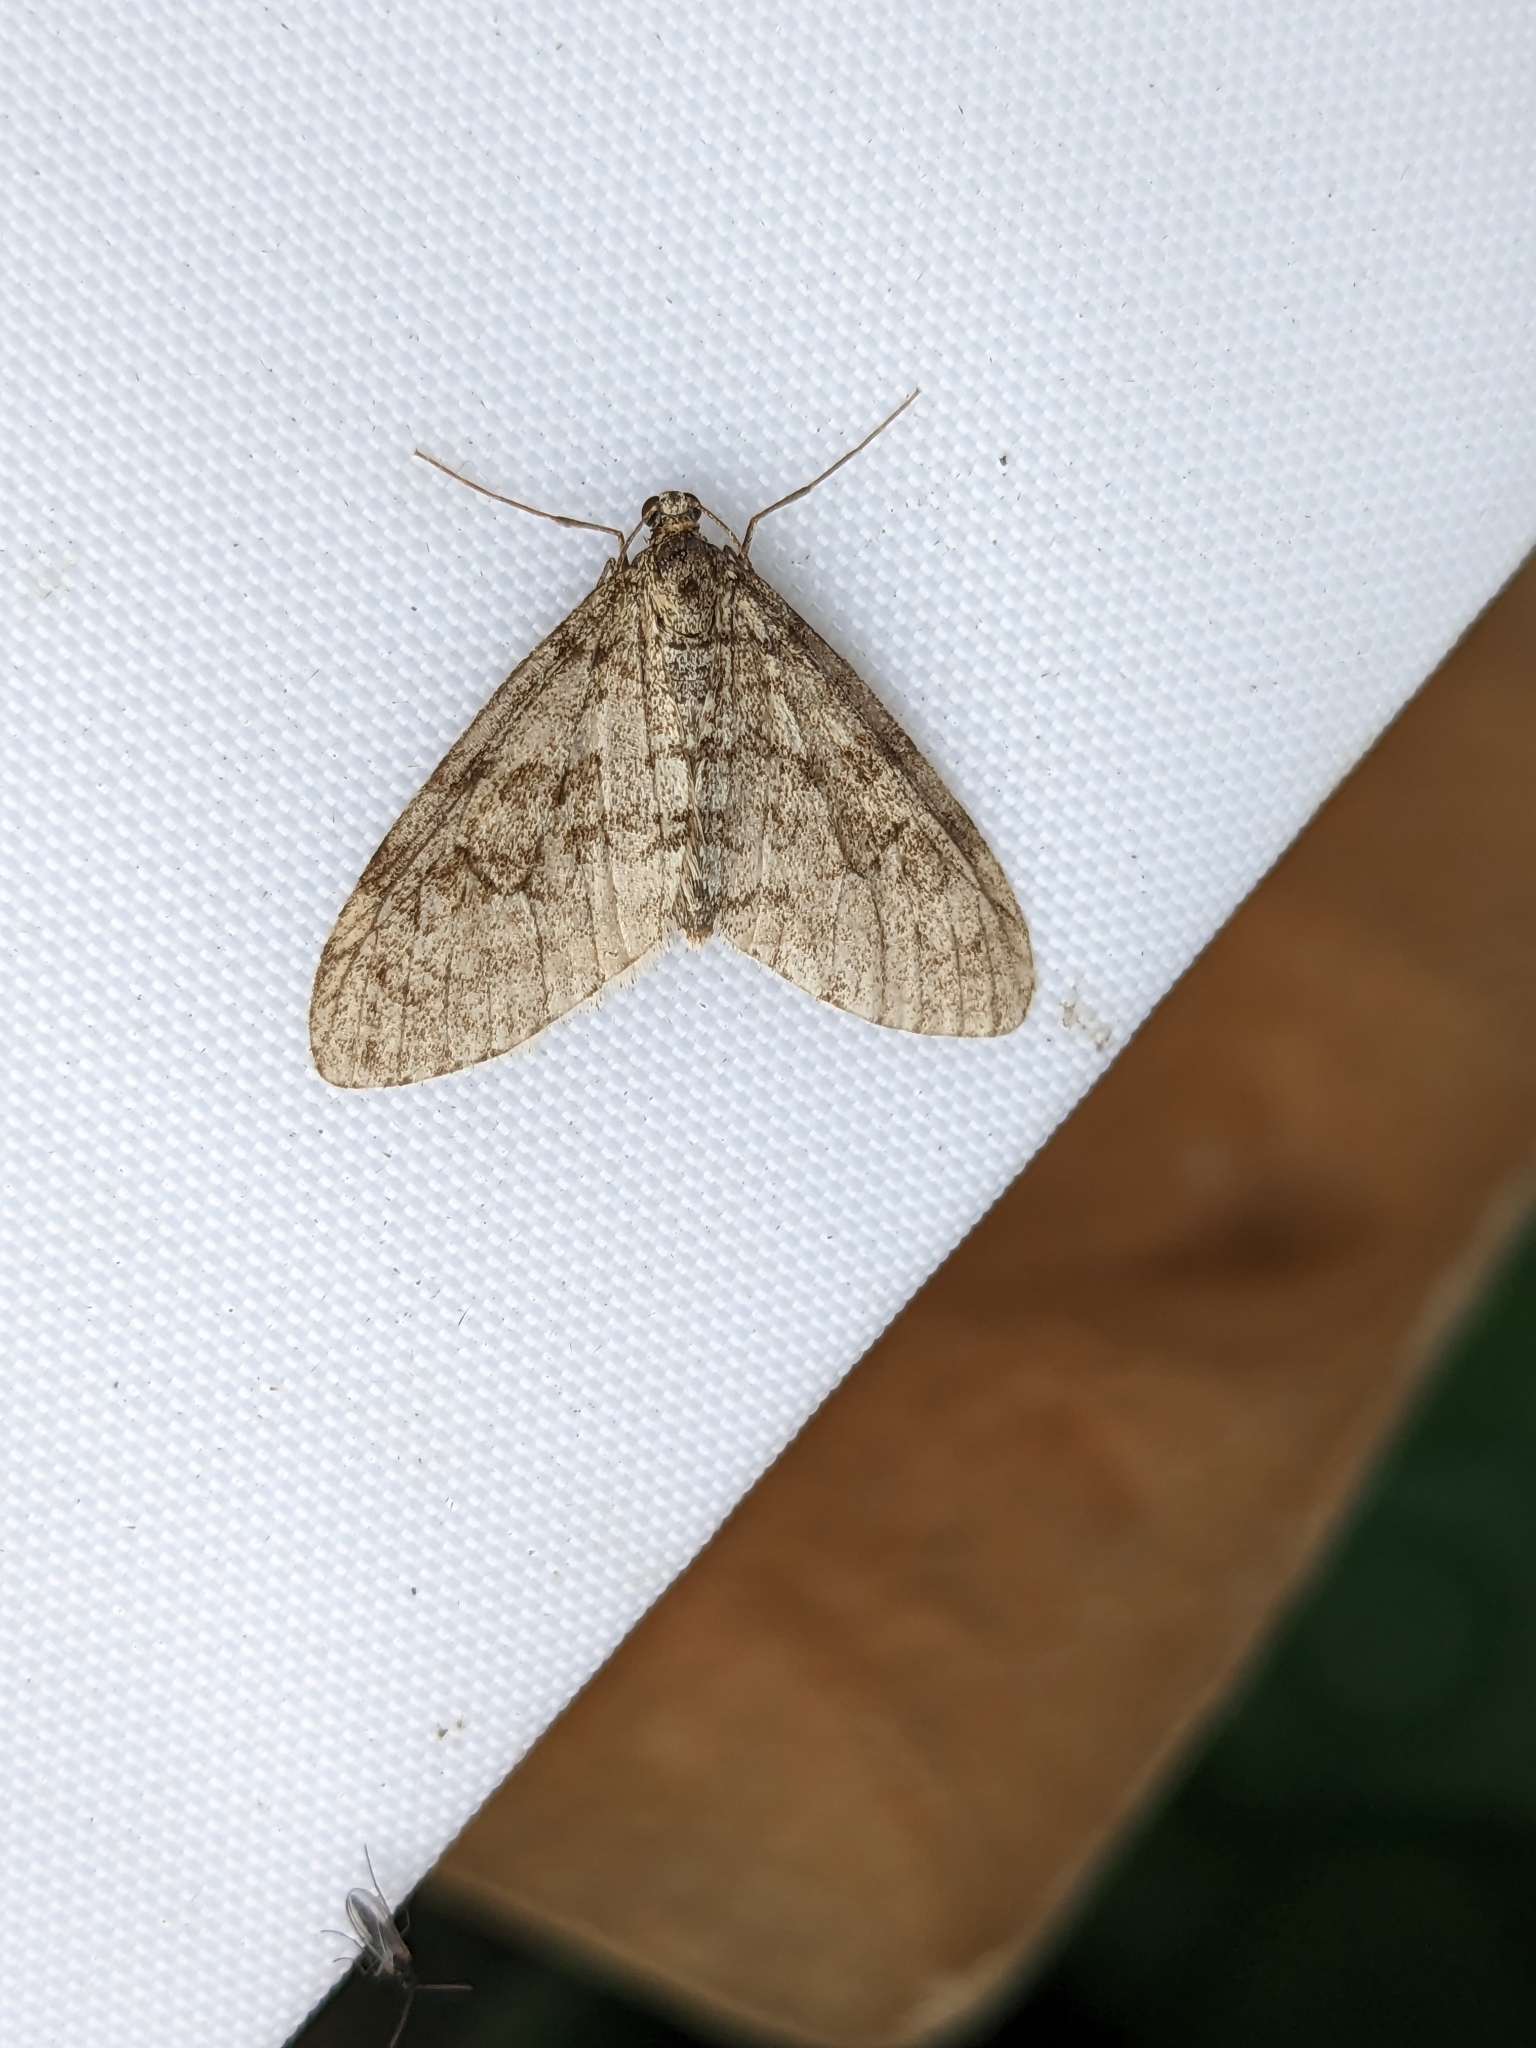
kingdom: Animalia
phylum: Arthropoda
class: Insecta
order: Lepidoptera
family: Geometridae
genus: Trichopteryx
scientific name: Trichopteryx carpinata
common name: Early tooth-striped
